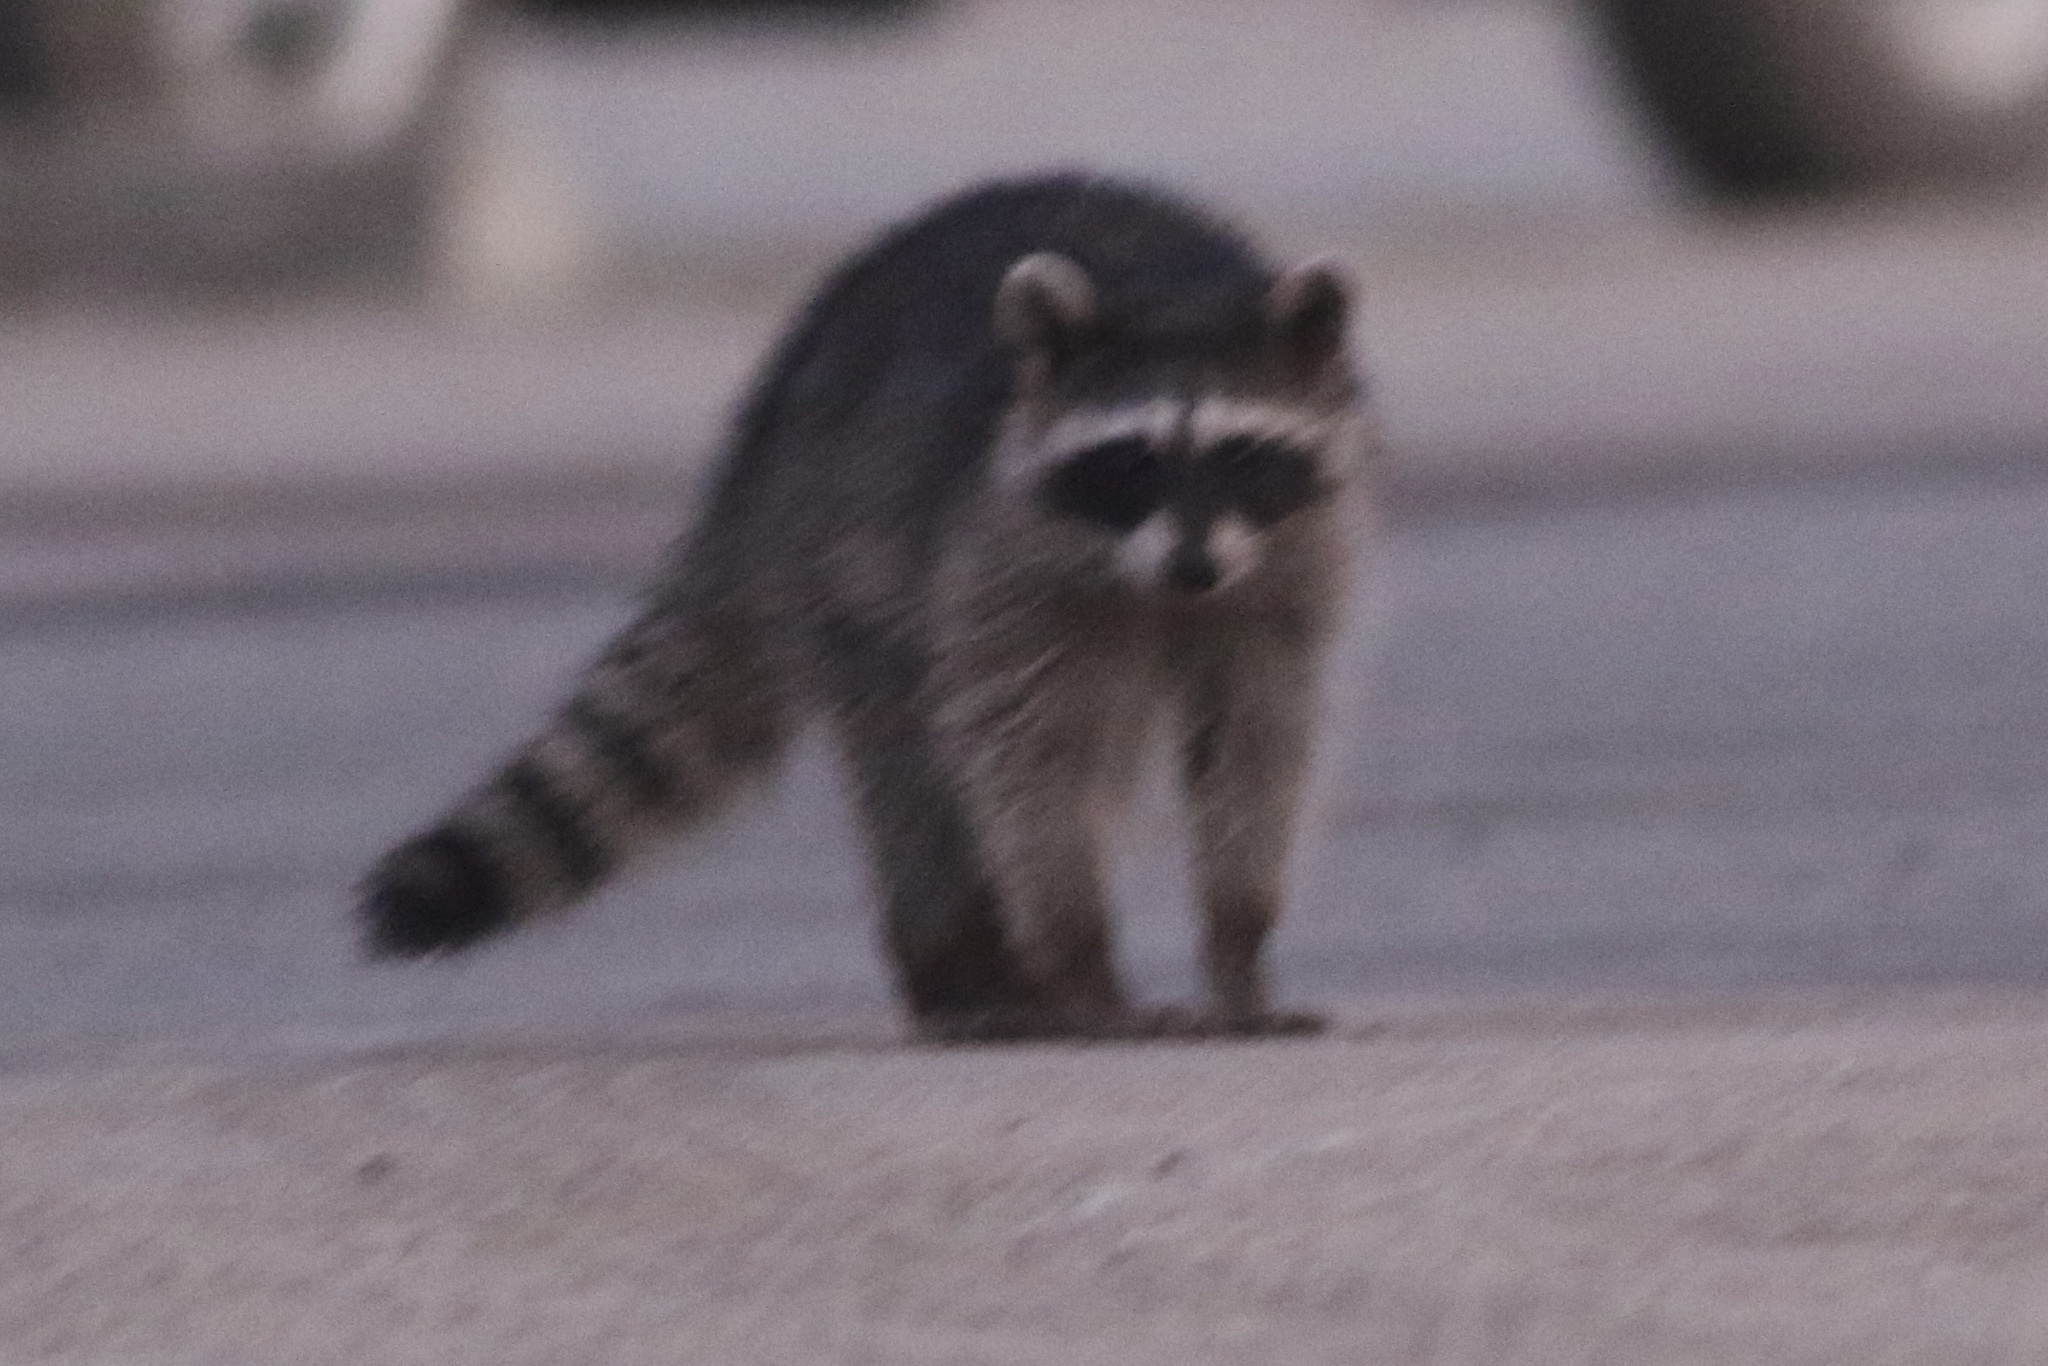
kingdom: Animalia
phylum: Chordata
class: Mammalia
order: Carnivora
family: Procyonidae
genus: Procyon
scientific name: Procyon lotor
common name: Raccoon
